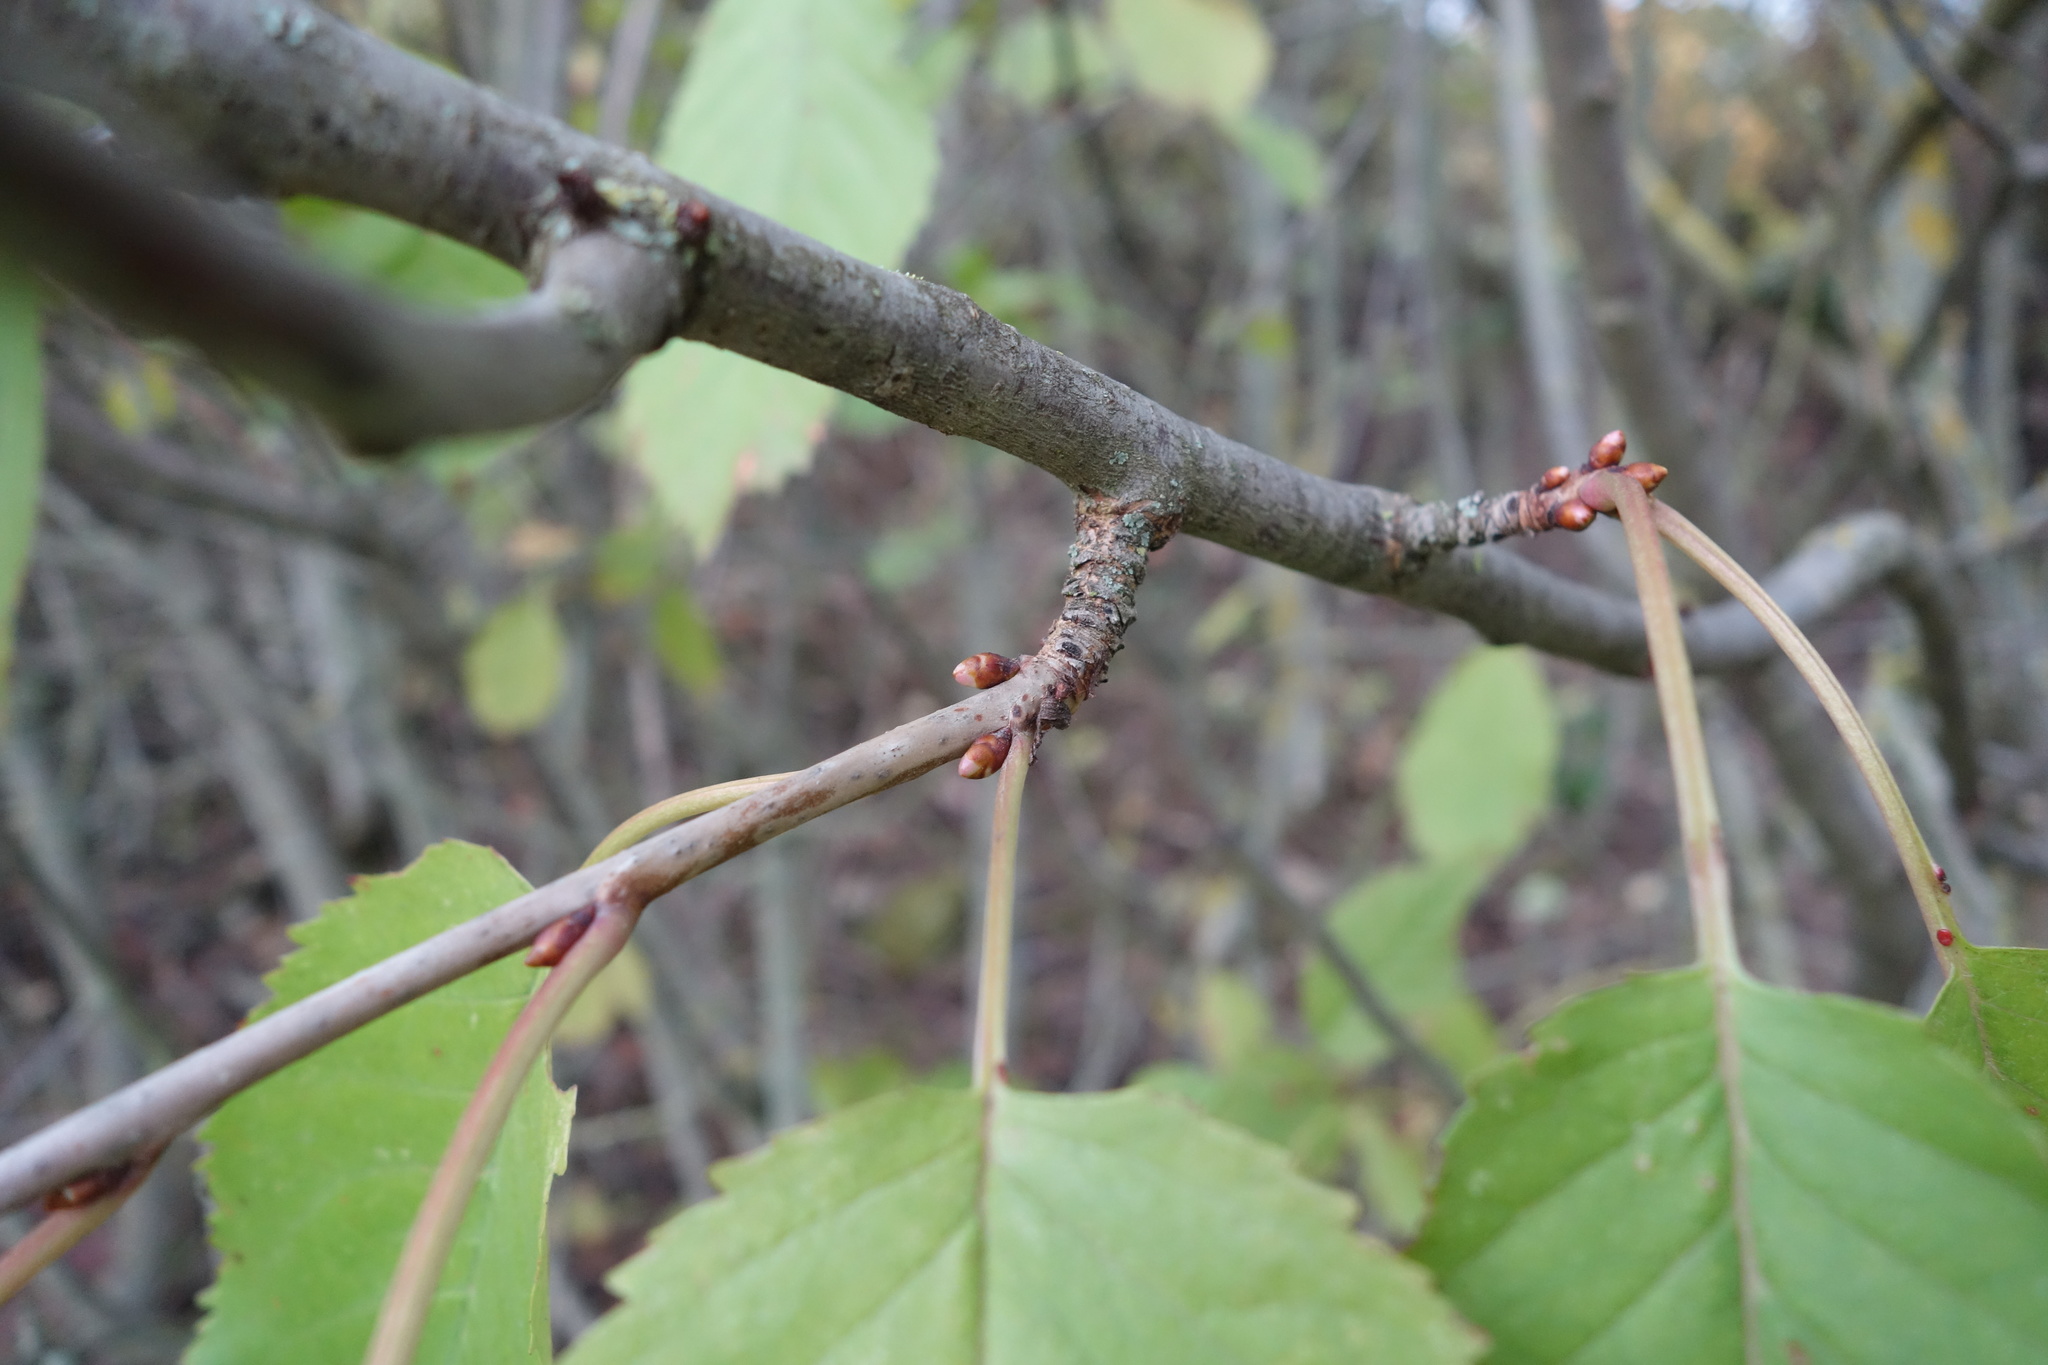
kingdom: Plantae
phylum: Tracheophyta
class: Magnoliopsida
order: Rosales
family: Rosaceae
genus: Prunus
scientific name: Prunus avium
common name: Sweet cherry
